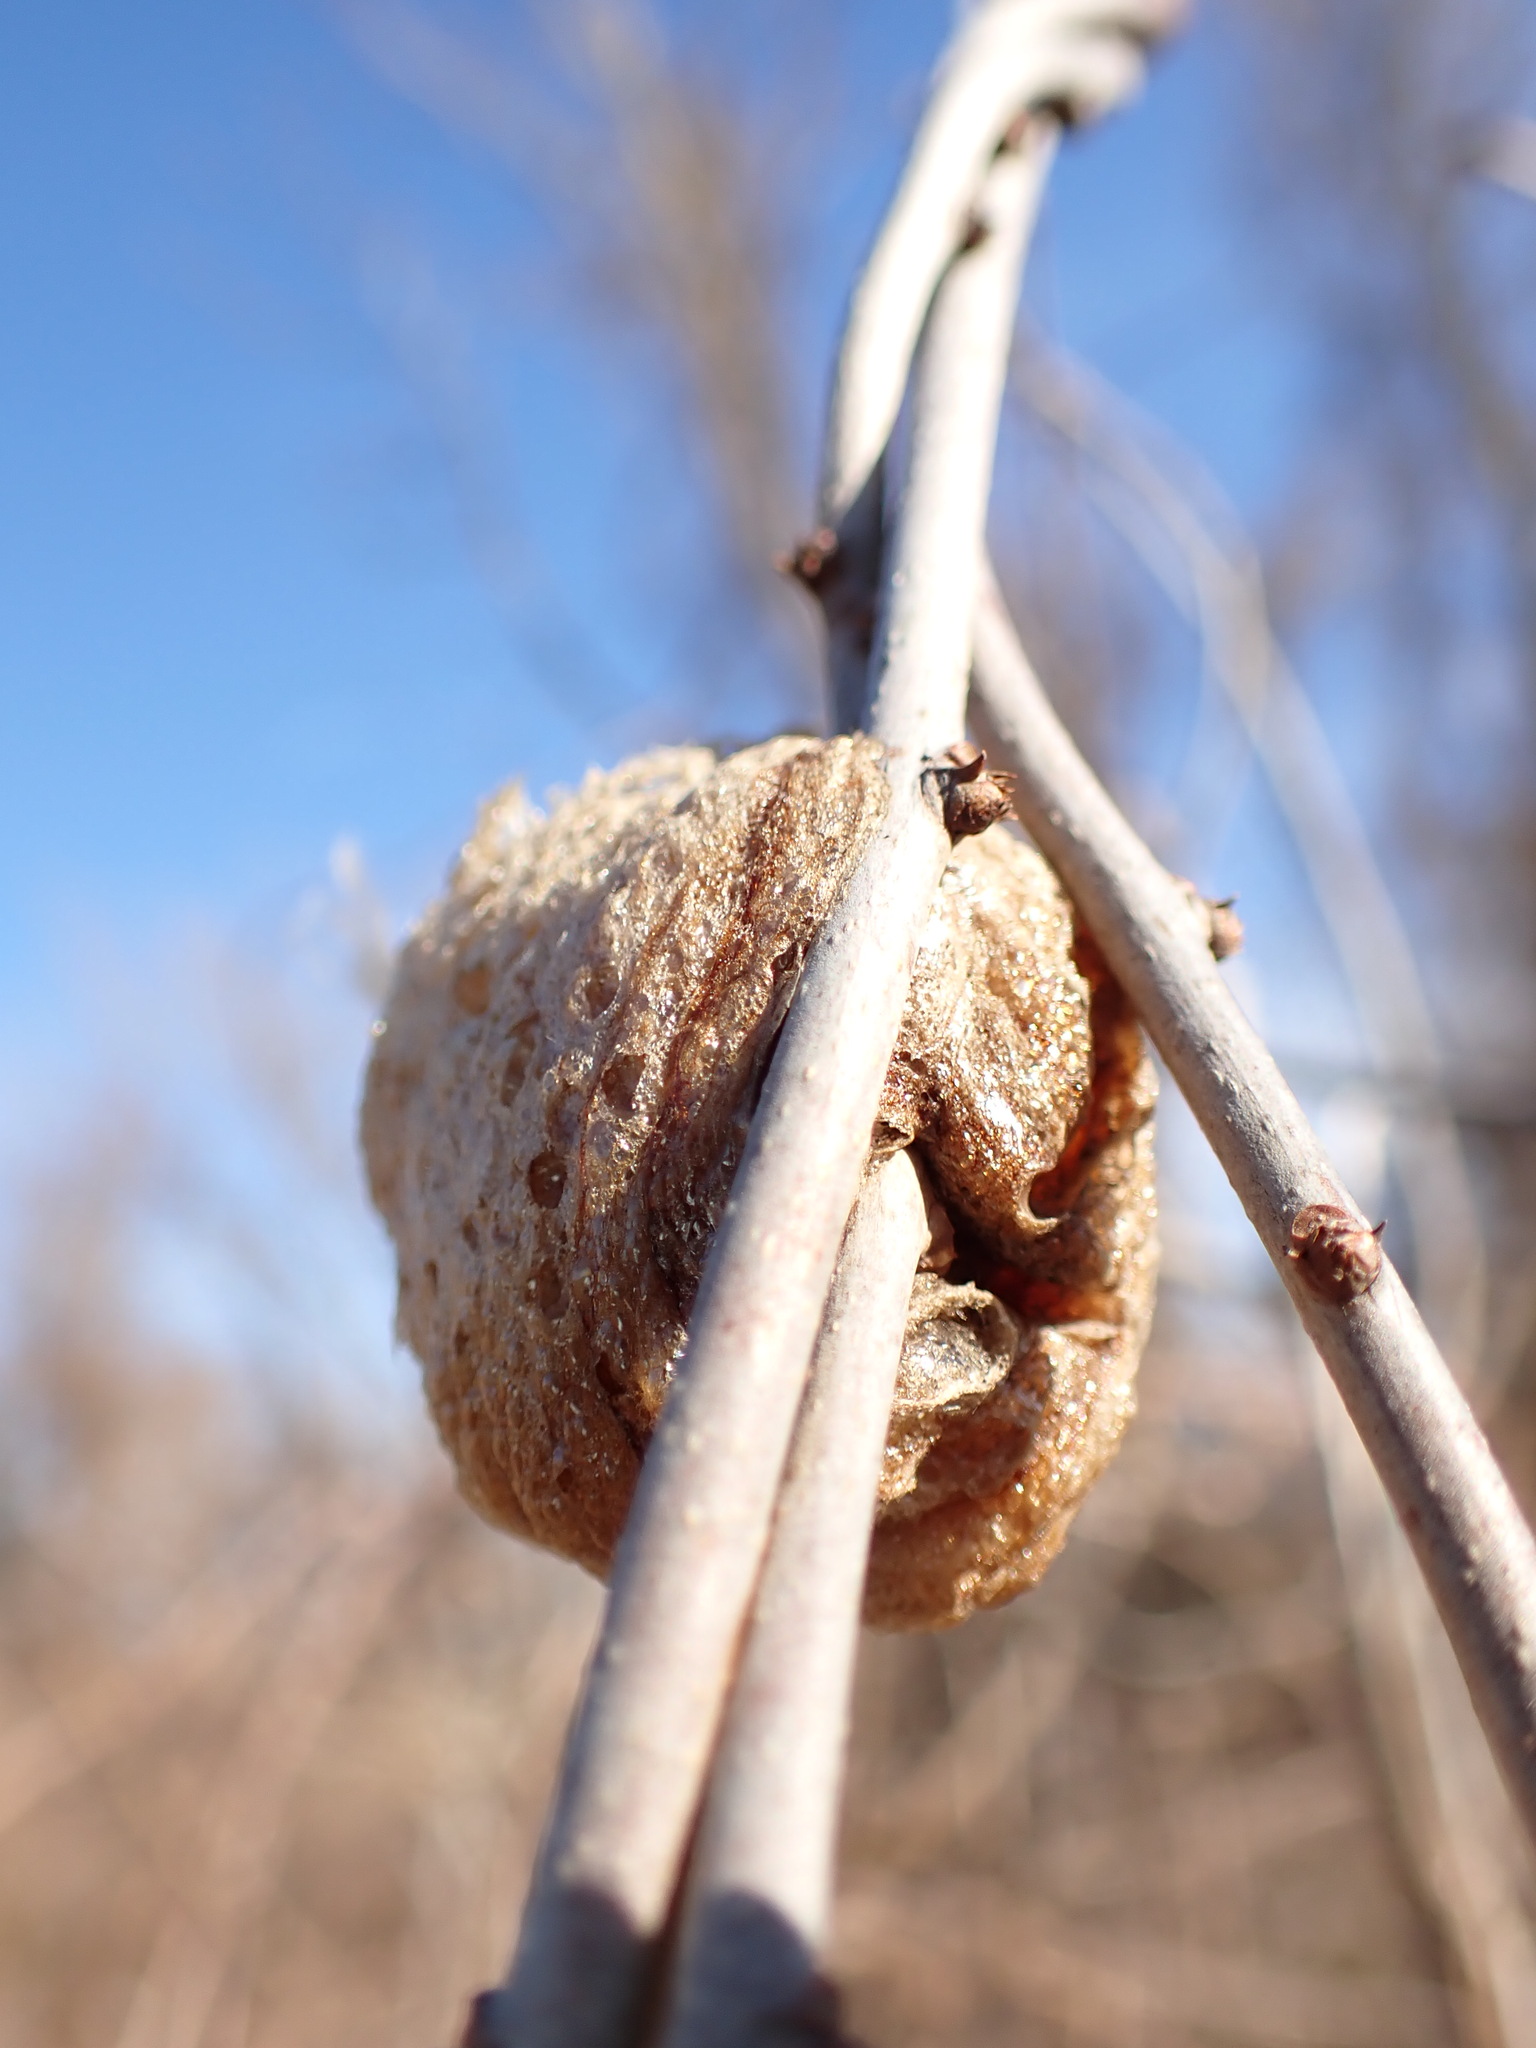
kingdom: Animalia
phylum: Arthropoda
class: Insecta
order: Mantodea
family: Mantidae
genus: Tenodera
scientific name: Tenodera sinensis
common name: Chinese mantis
